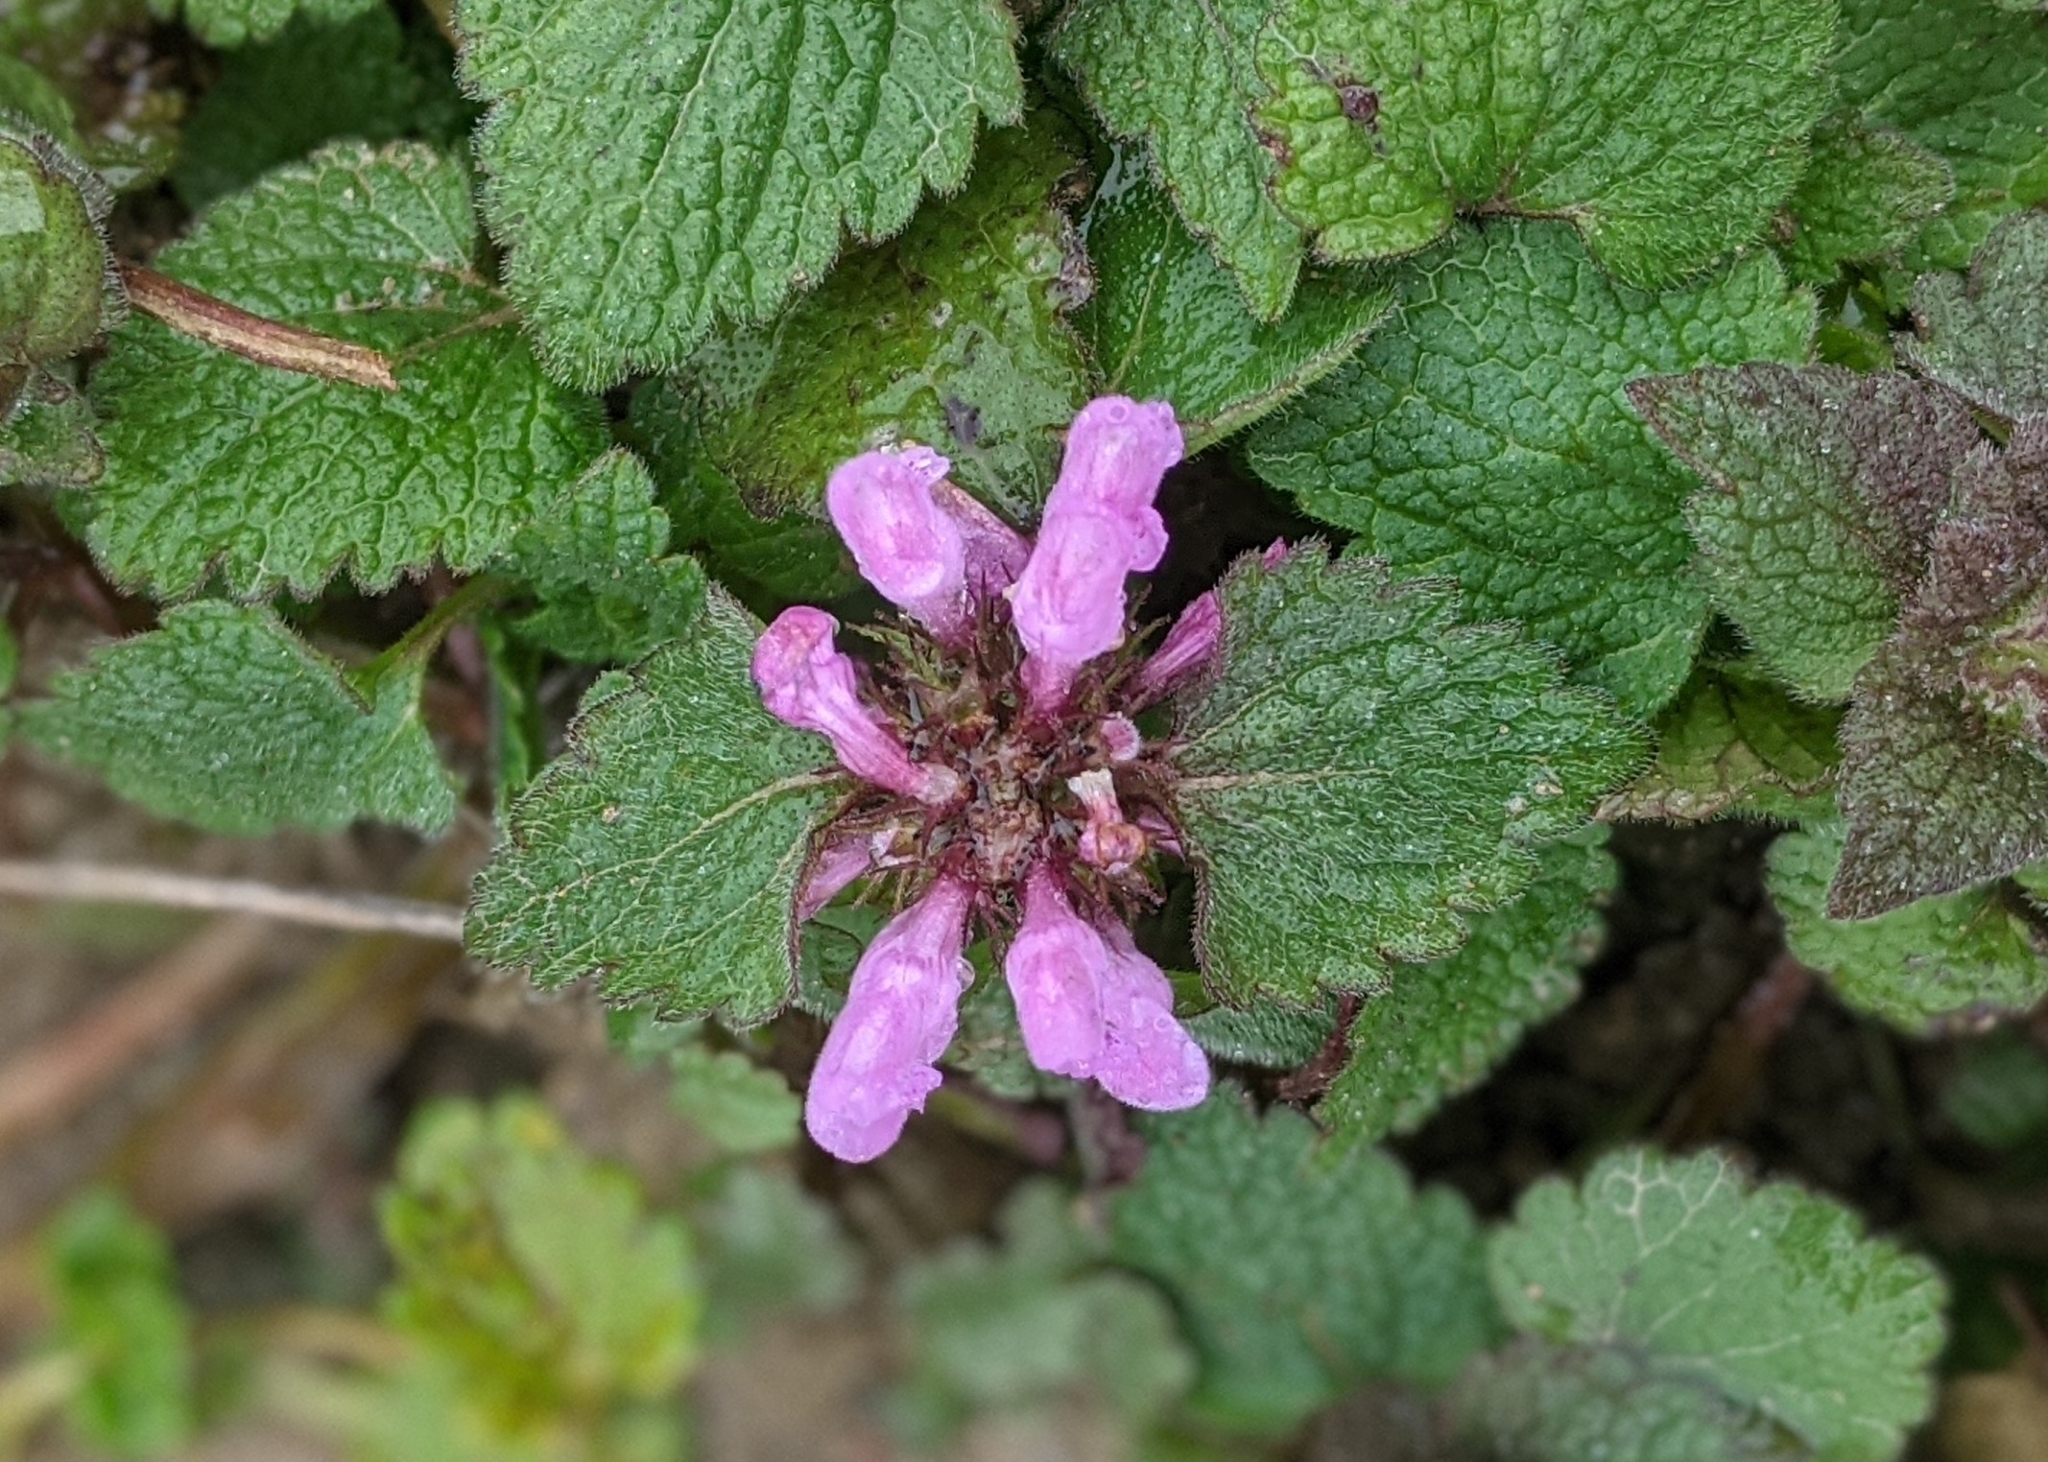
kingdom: Plantae
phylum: Tracheophyta
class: Magnoliopsida
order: Lamiales
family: Lamiaceae
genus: Lamium
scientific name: Lamium purpureum
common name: Red dead-nettle
